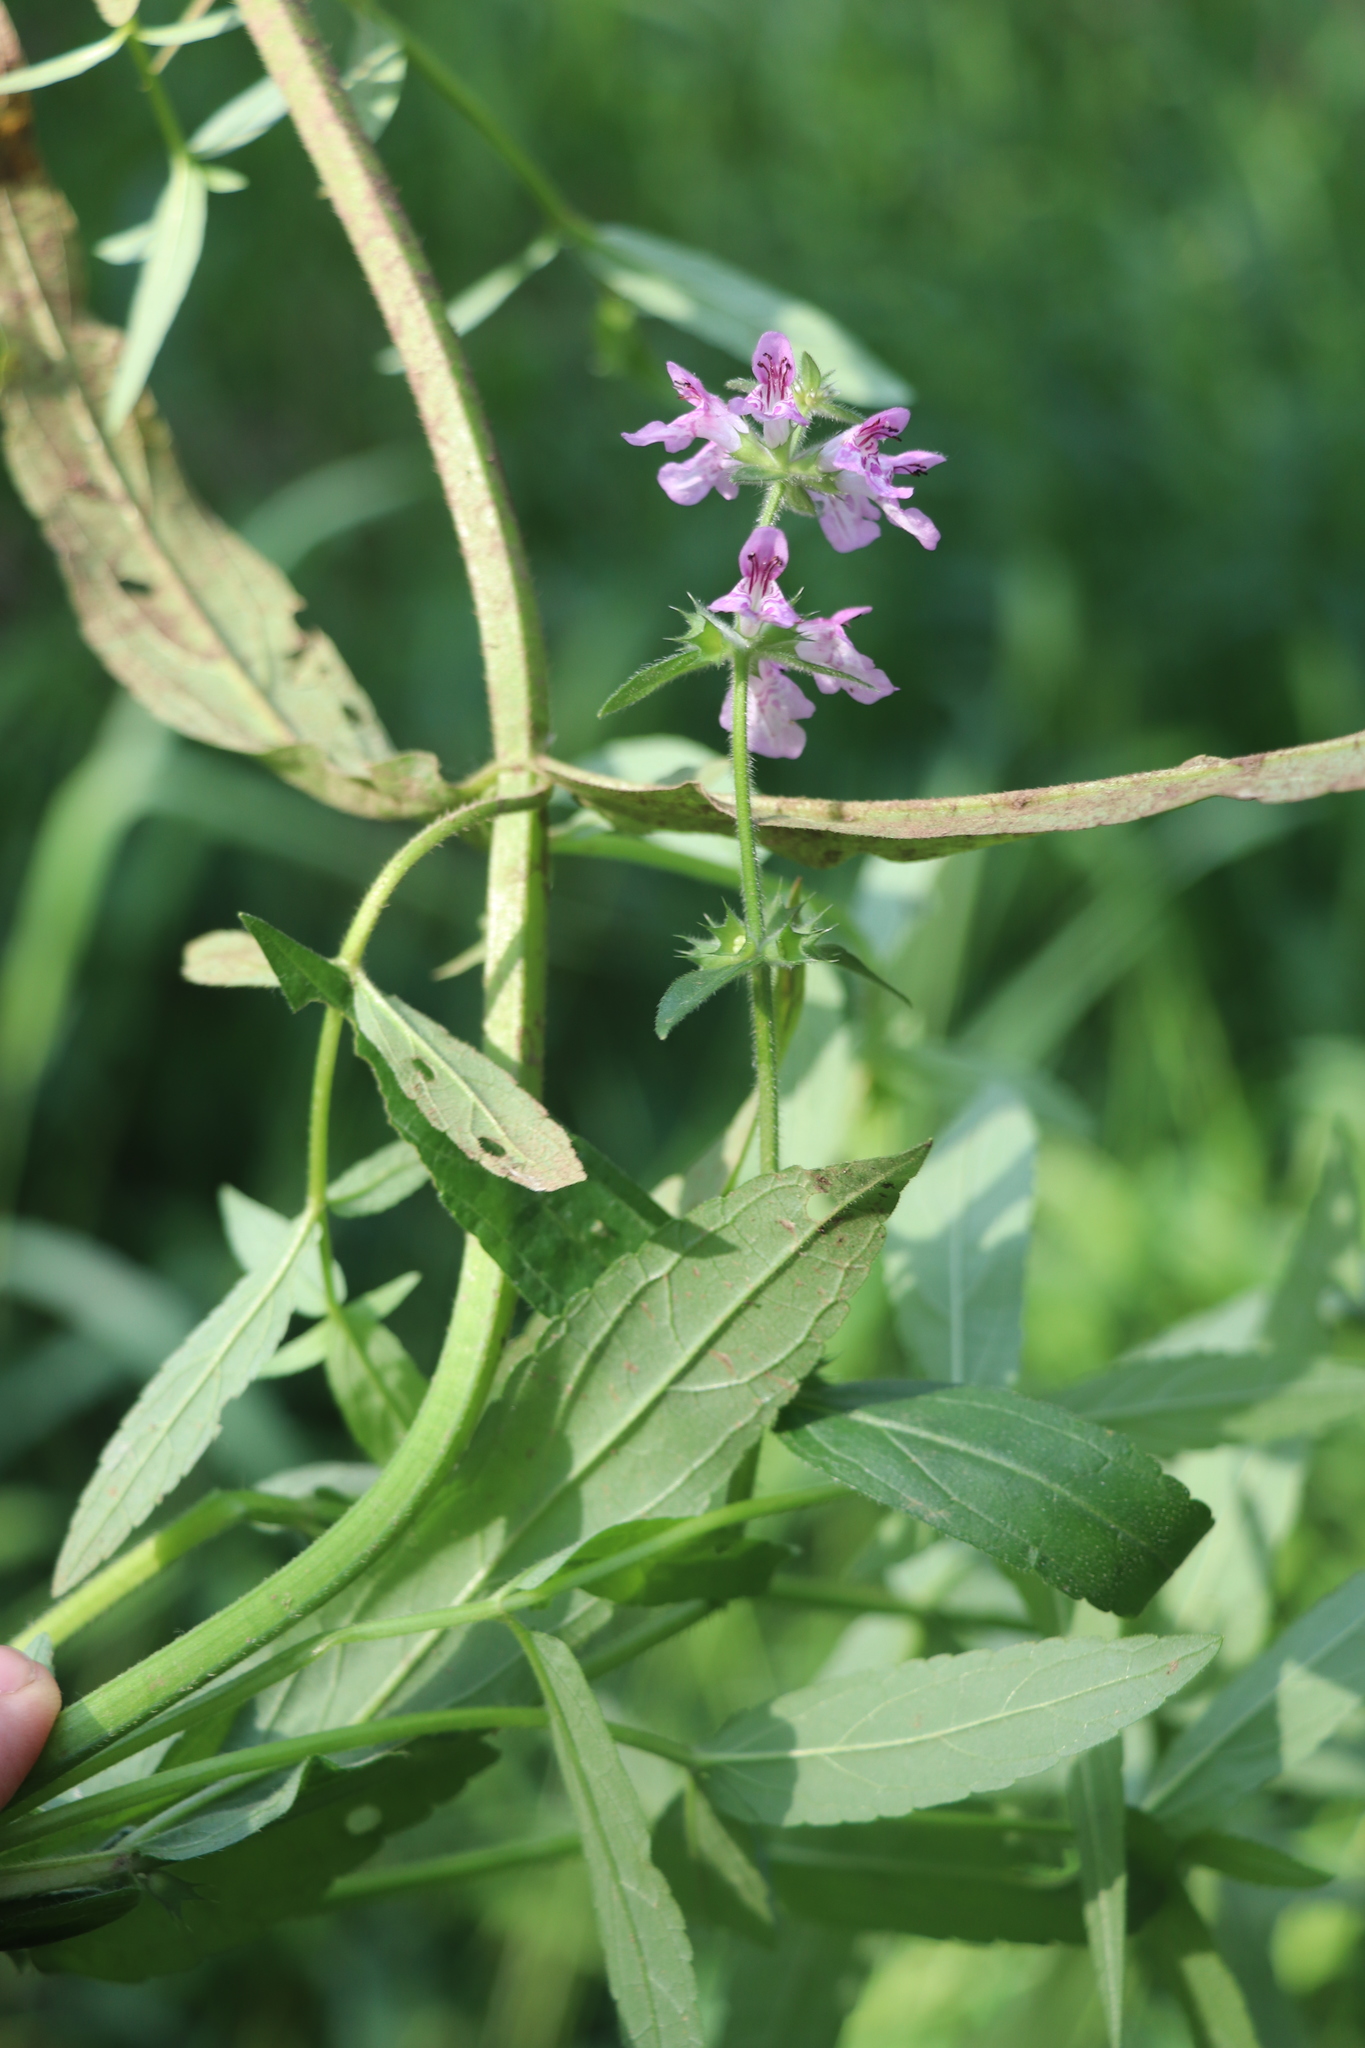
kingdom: Plantae
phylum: Tracheophyta
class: Magnoliopsida
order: Lamiales
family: Lamiaceae
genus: Stachys
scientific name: Stachys palustris
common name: Marsh woundwort
